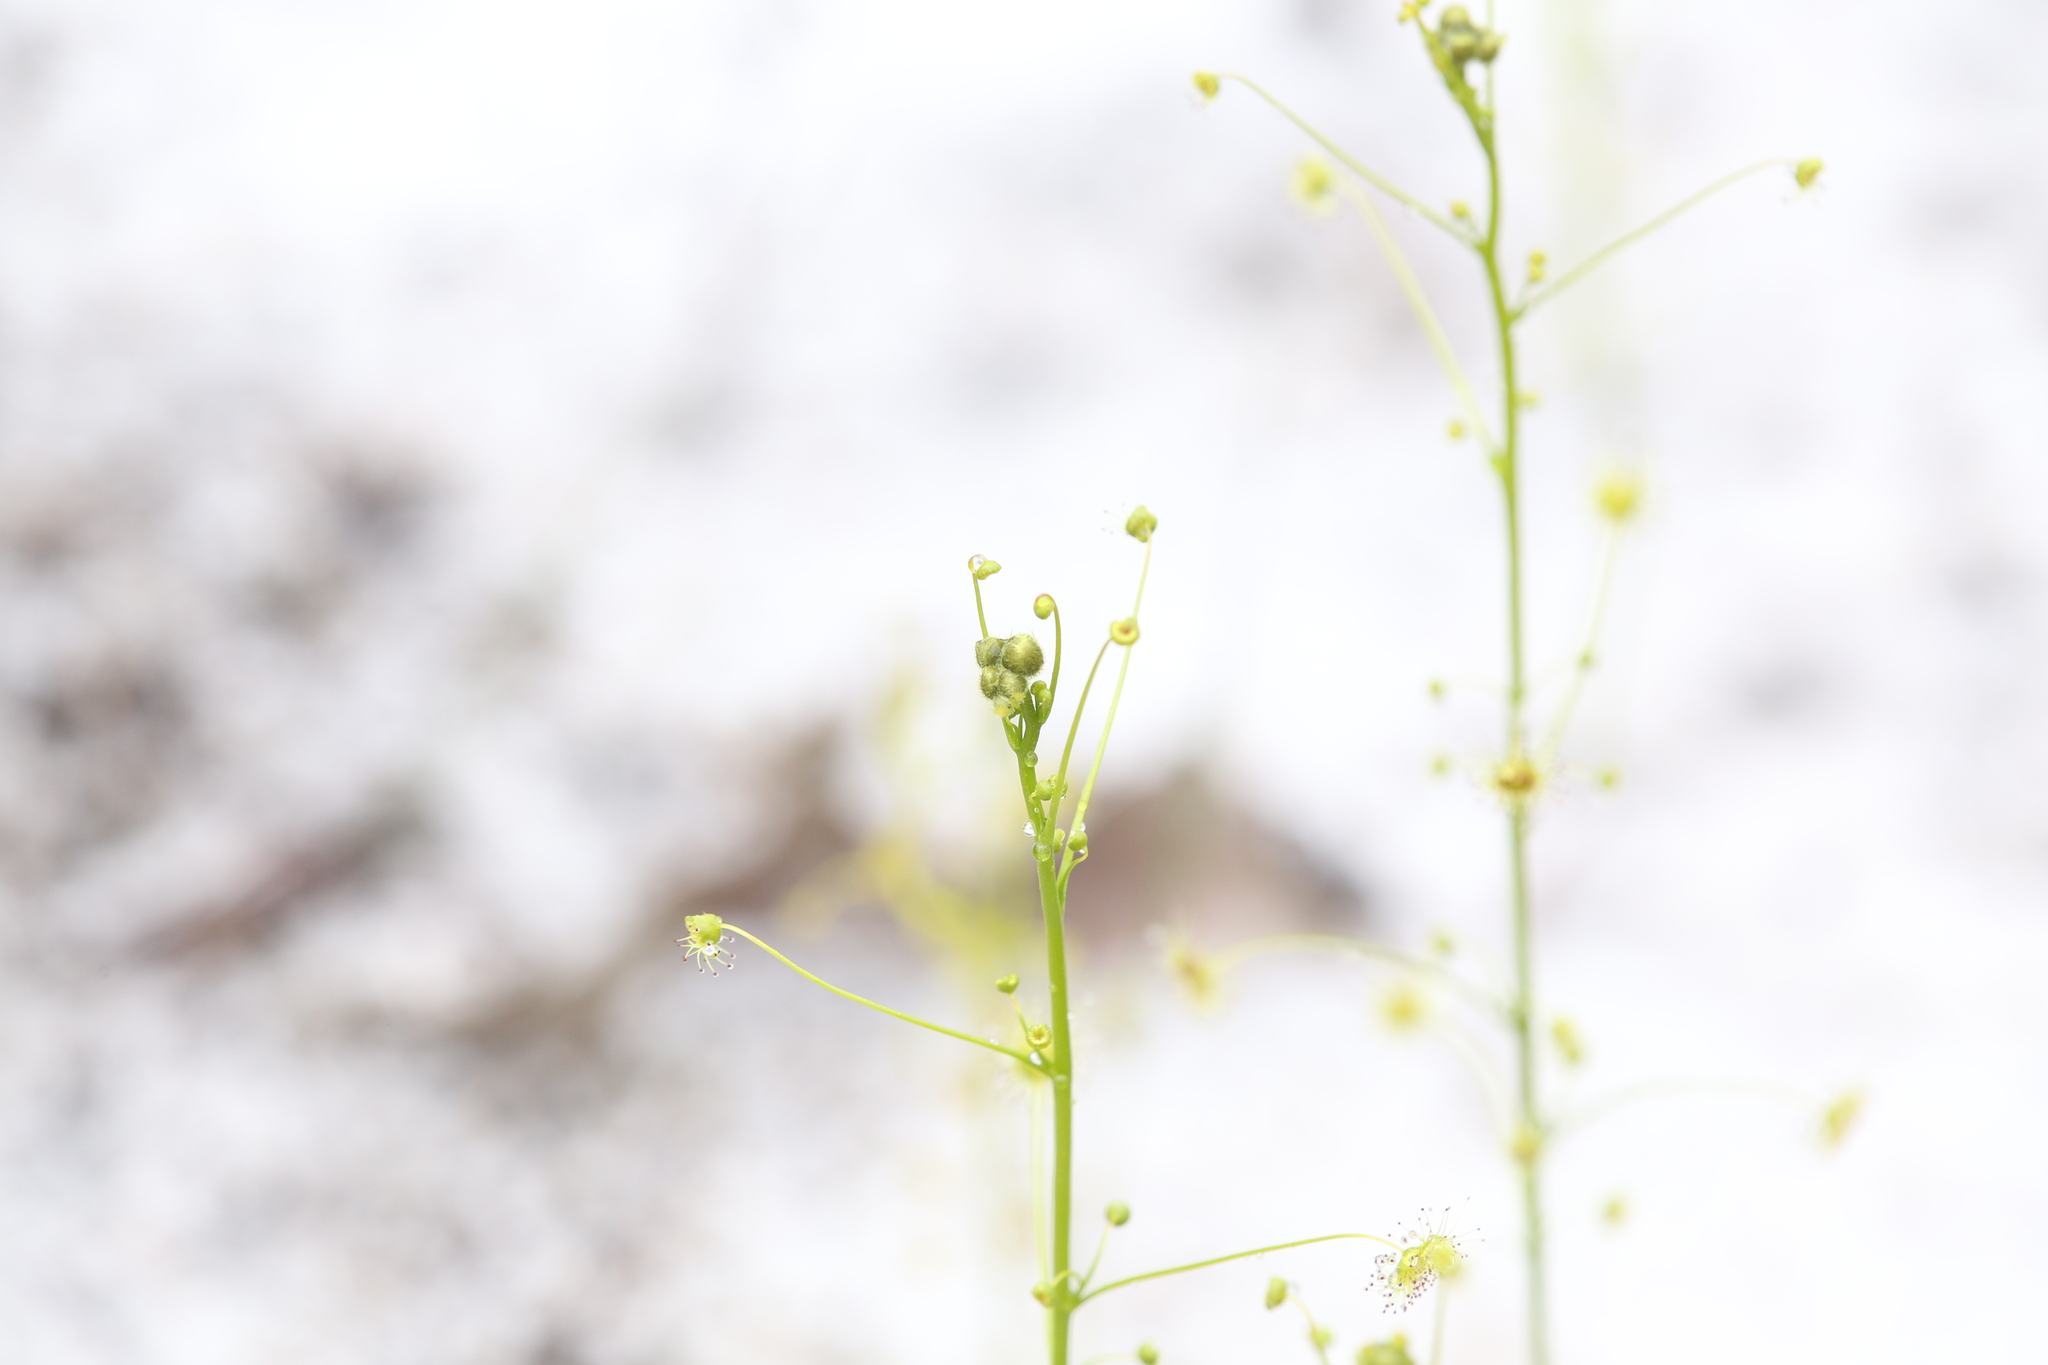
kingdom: Plantae
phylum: Tracheophyta
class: Magnoliopsida
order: Caryophyllales
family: Droseraceae
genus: Drosera
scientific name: Drosera neesii
